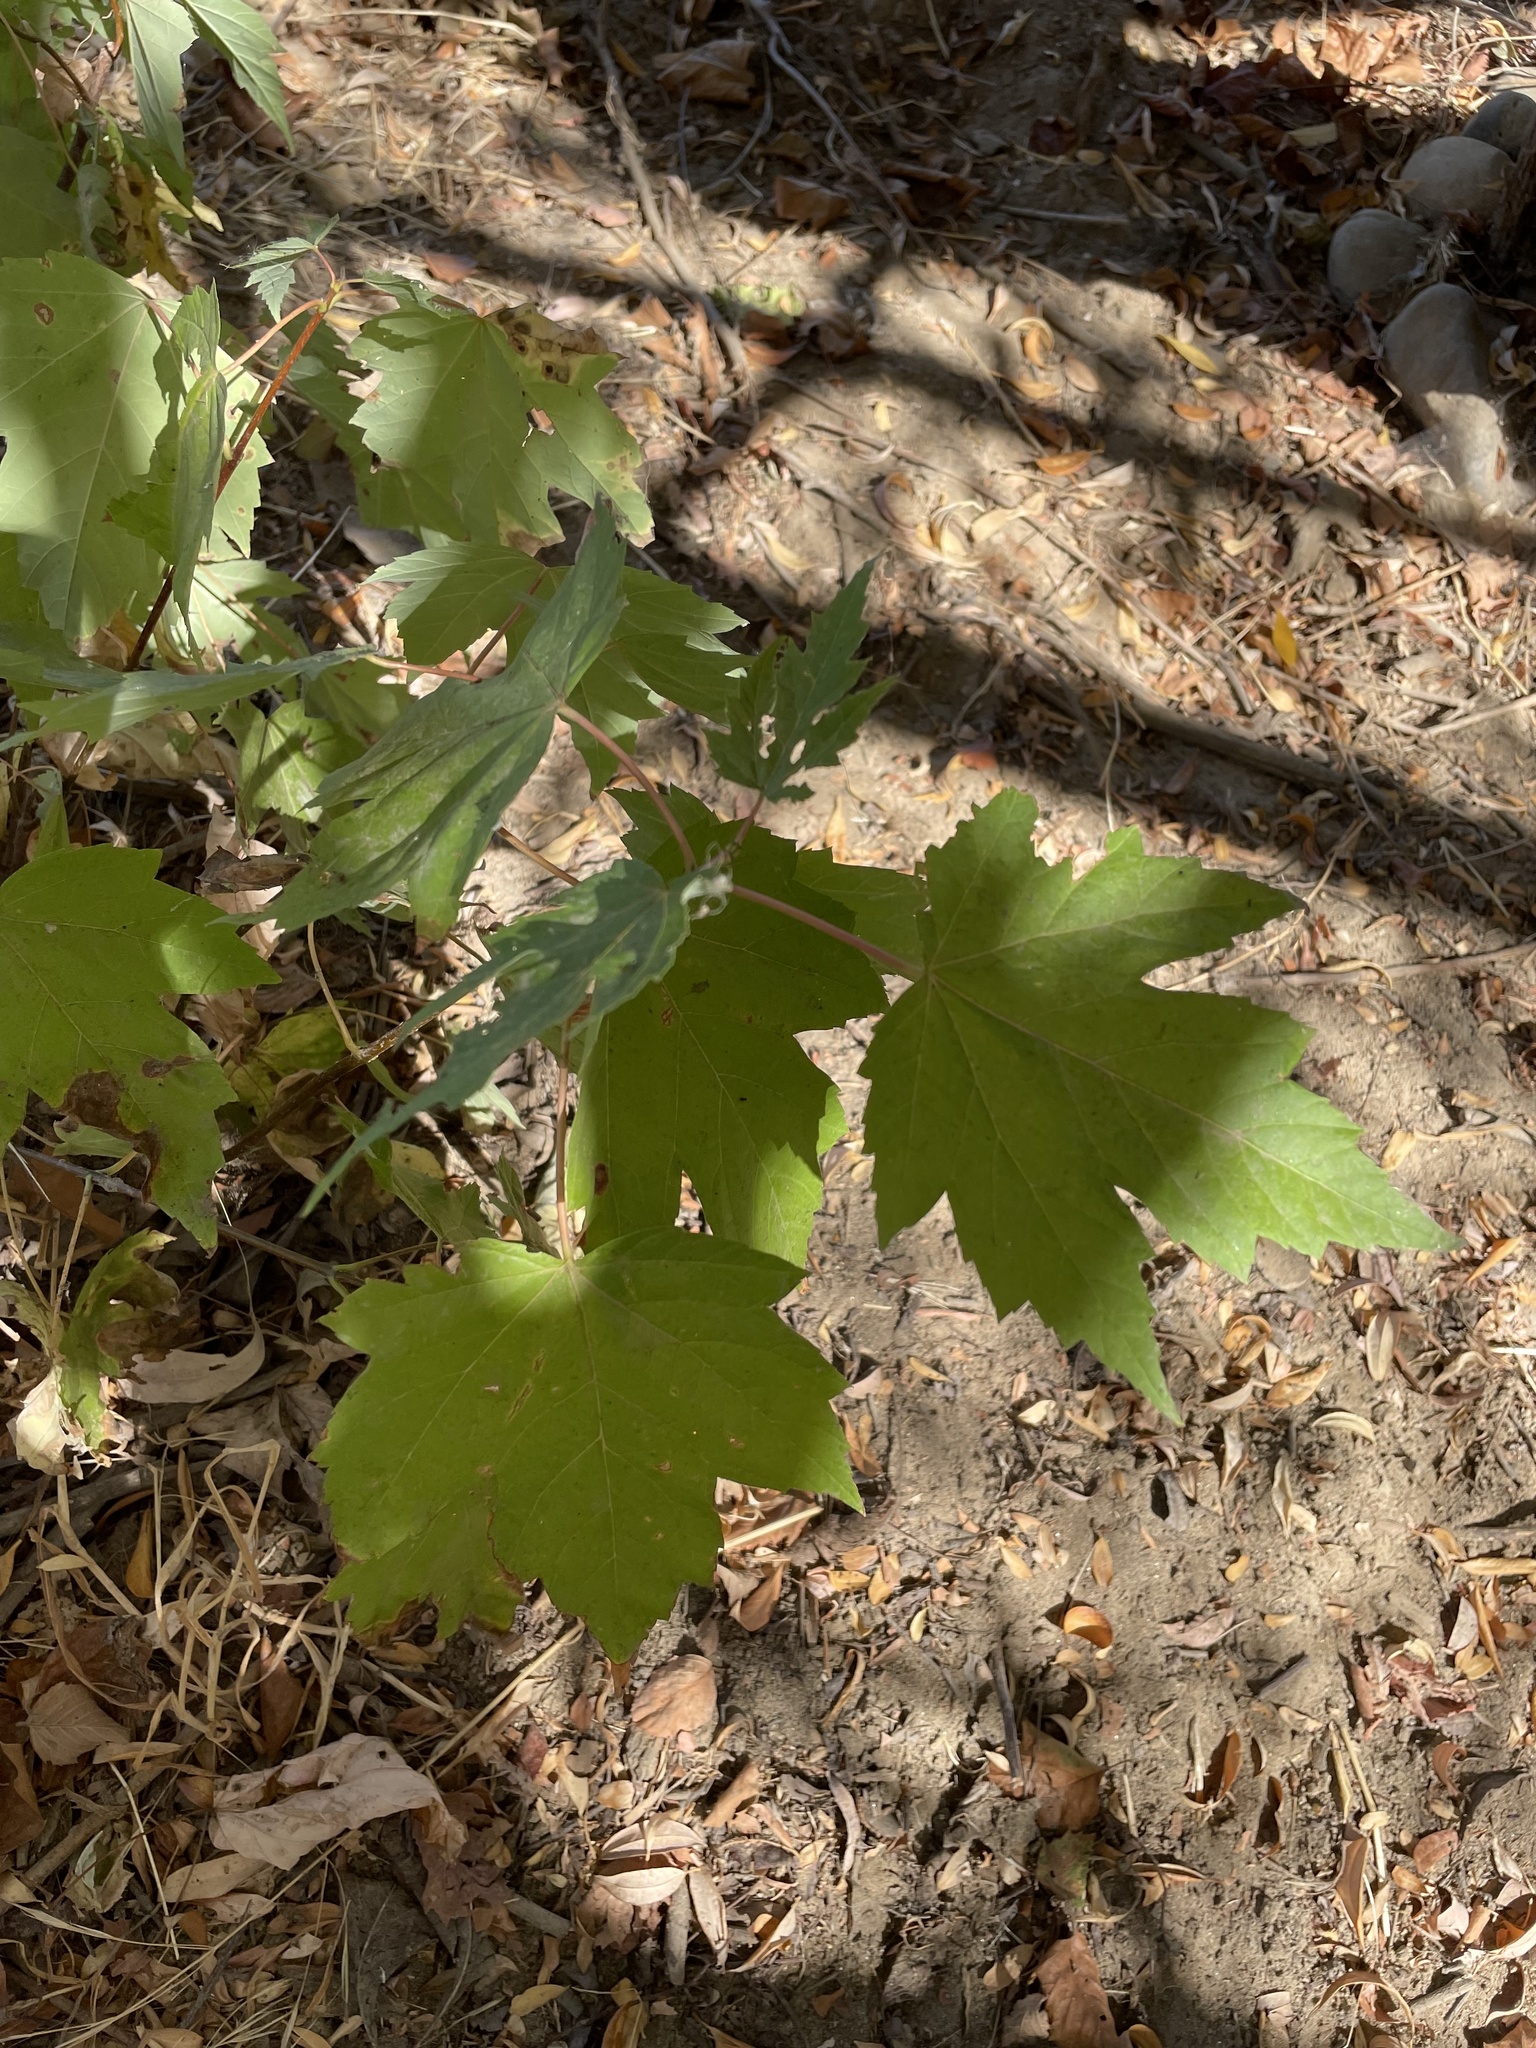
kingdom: Plantae
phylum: Tracheophyta
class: Magnoliopsida
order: Sapindales
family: Sapindaceae
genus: Acer
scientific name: Acer saccharinum
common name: Silver maple
